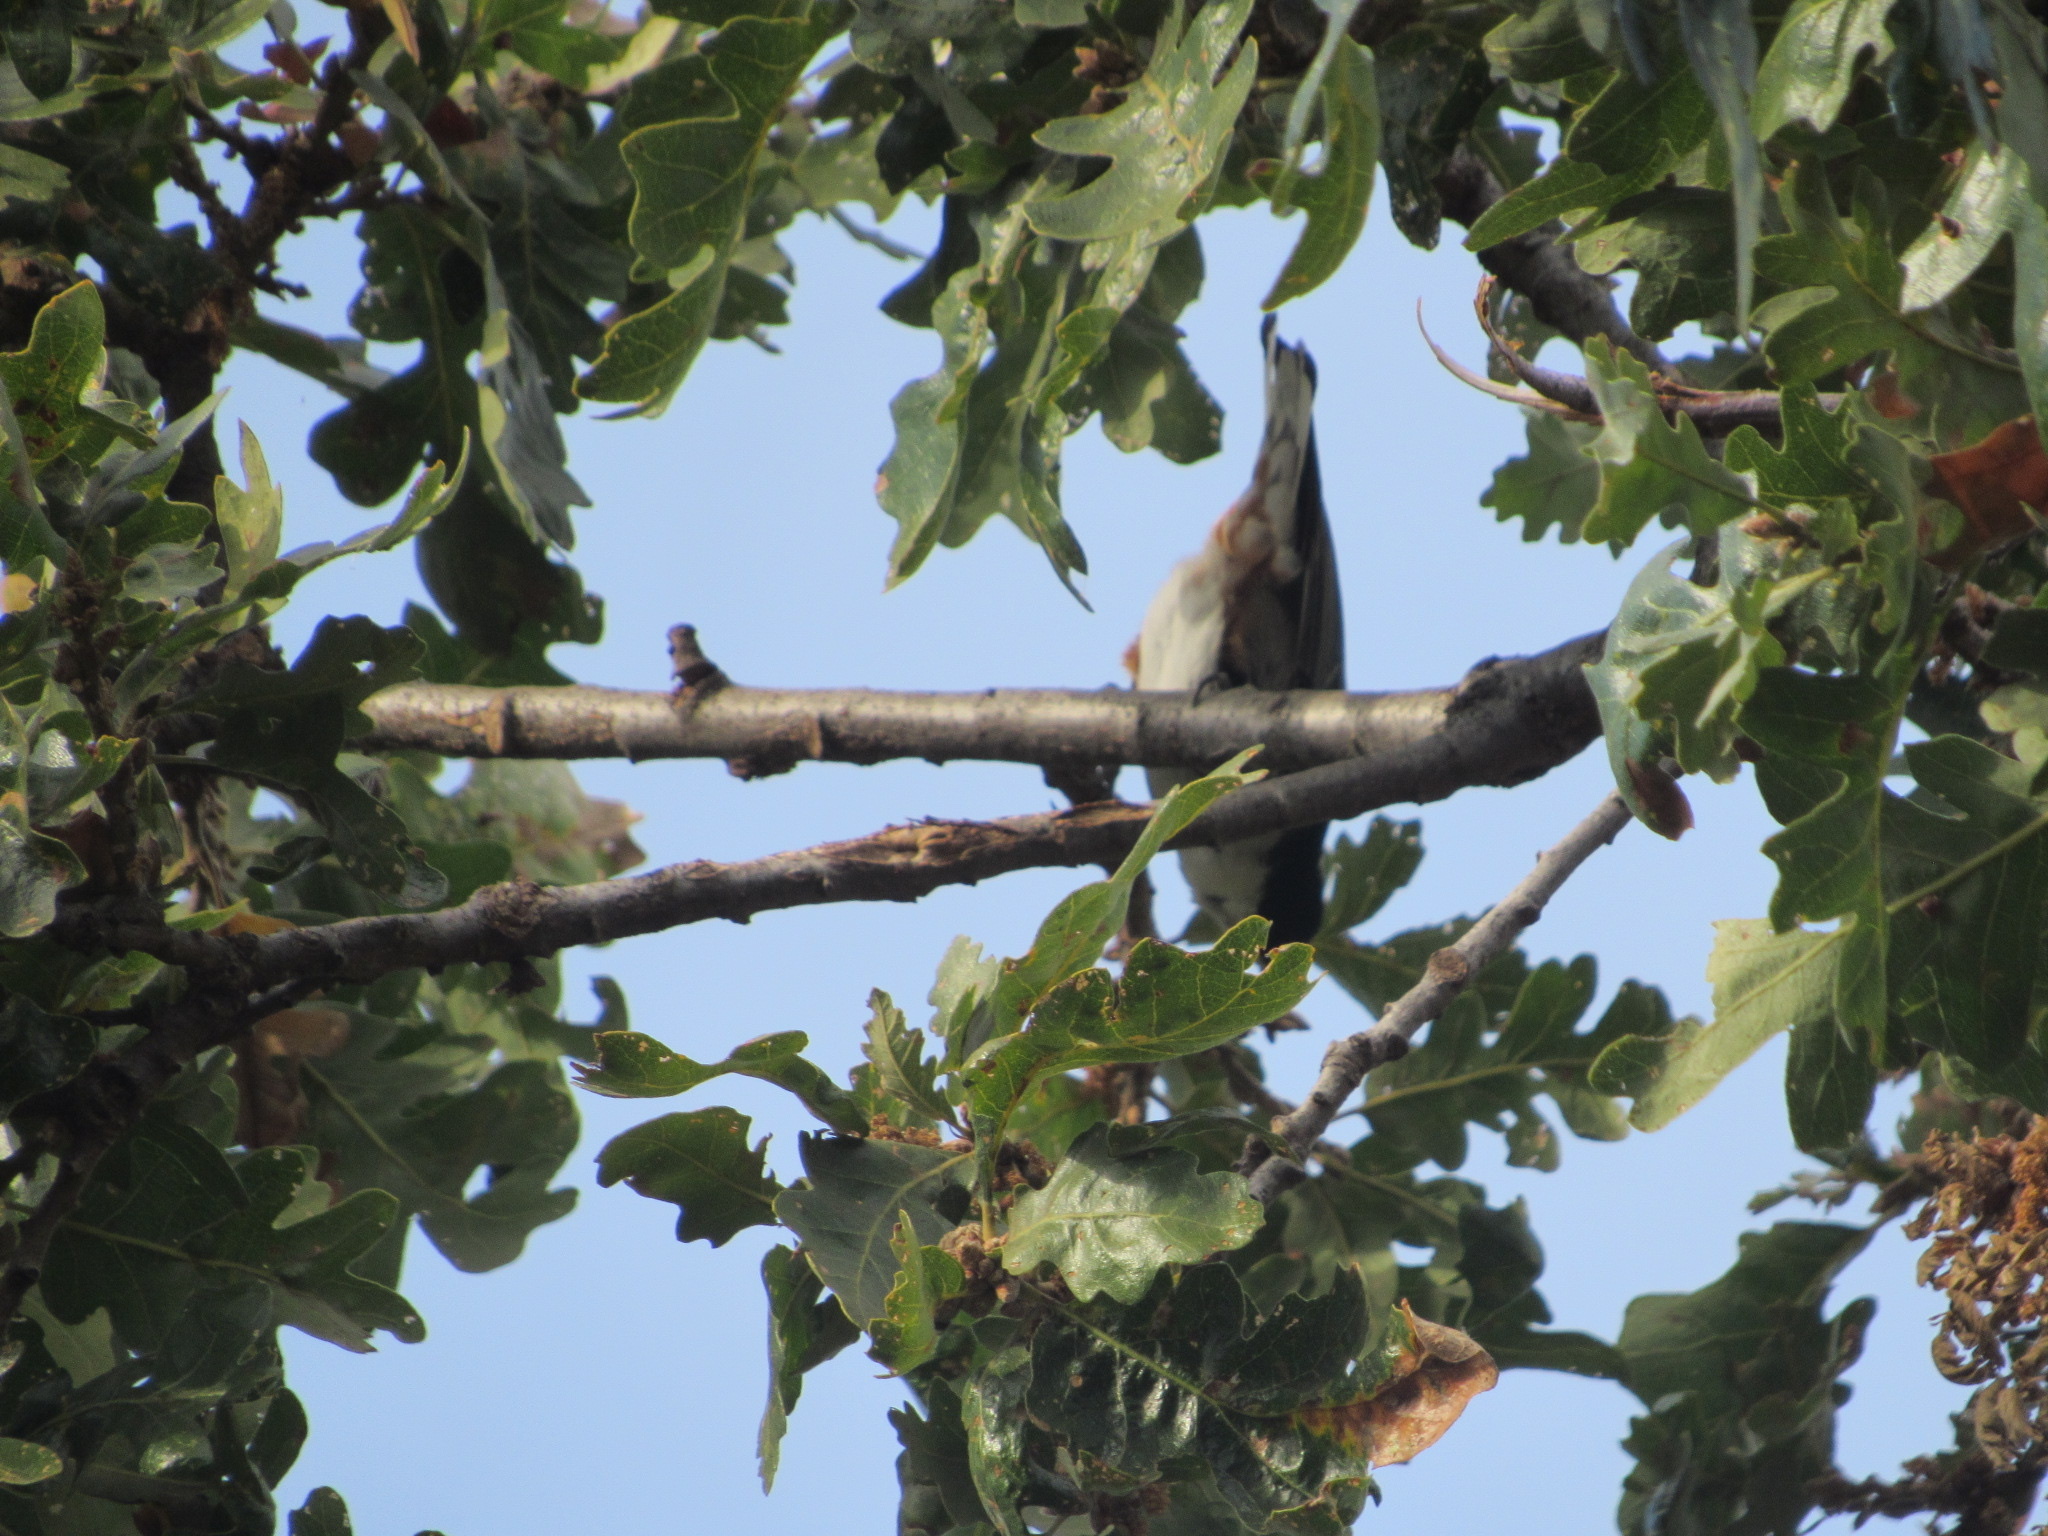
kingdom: Animalia
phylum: Chordata
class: Aves
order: Passeriformes
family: Sittidae
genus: Sitta
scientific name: Sitta carolinensis
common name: White-breasted nuthatch
